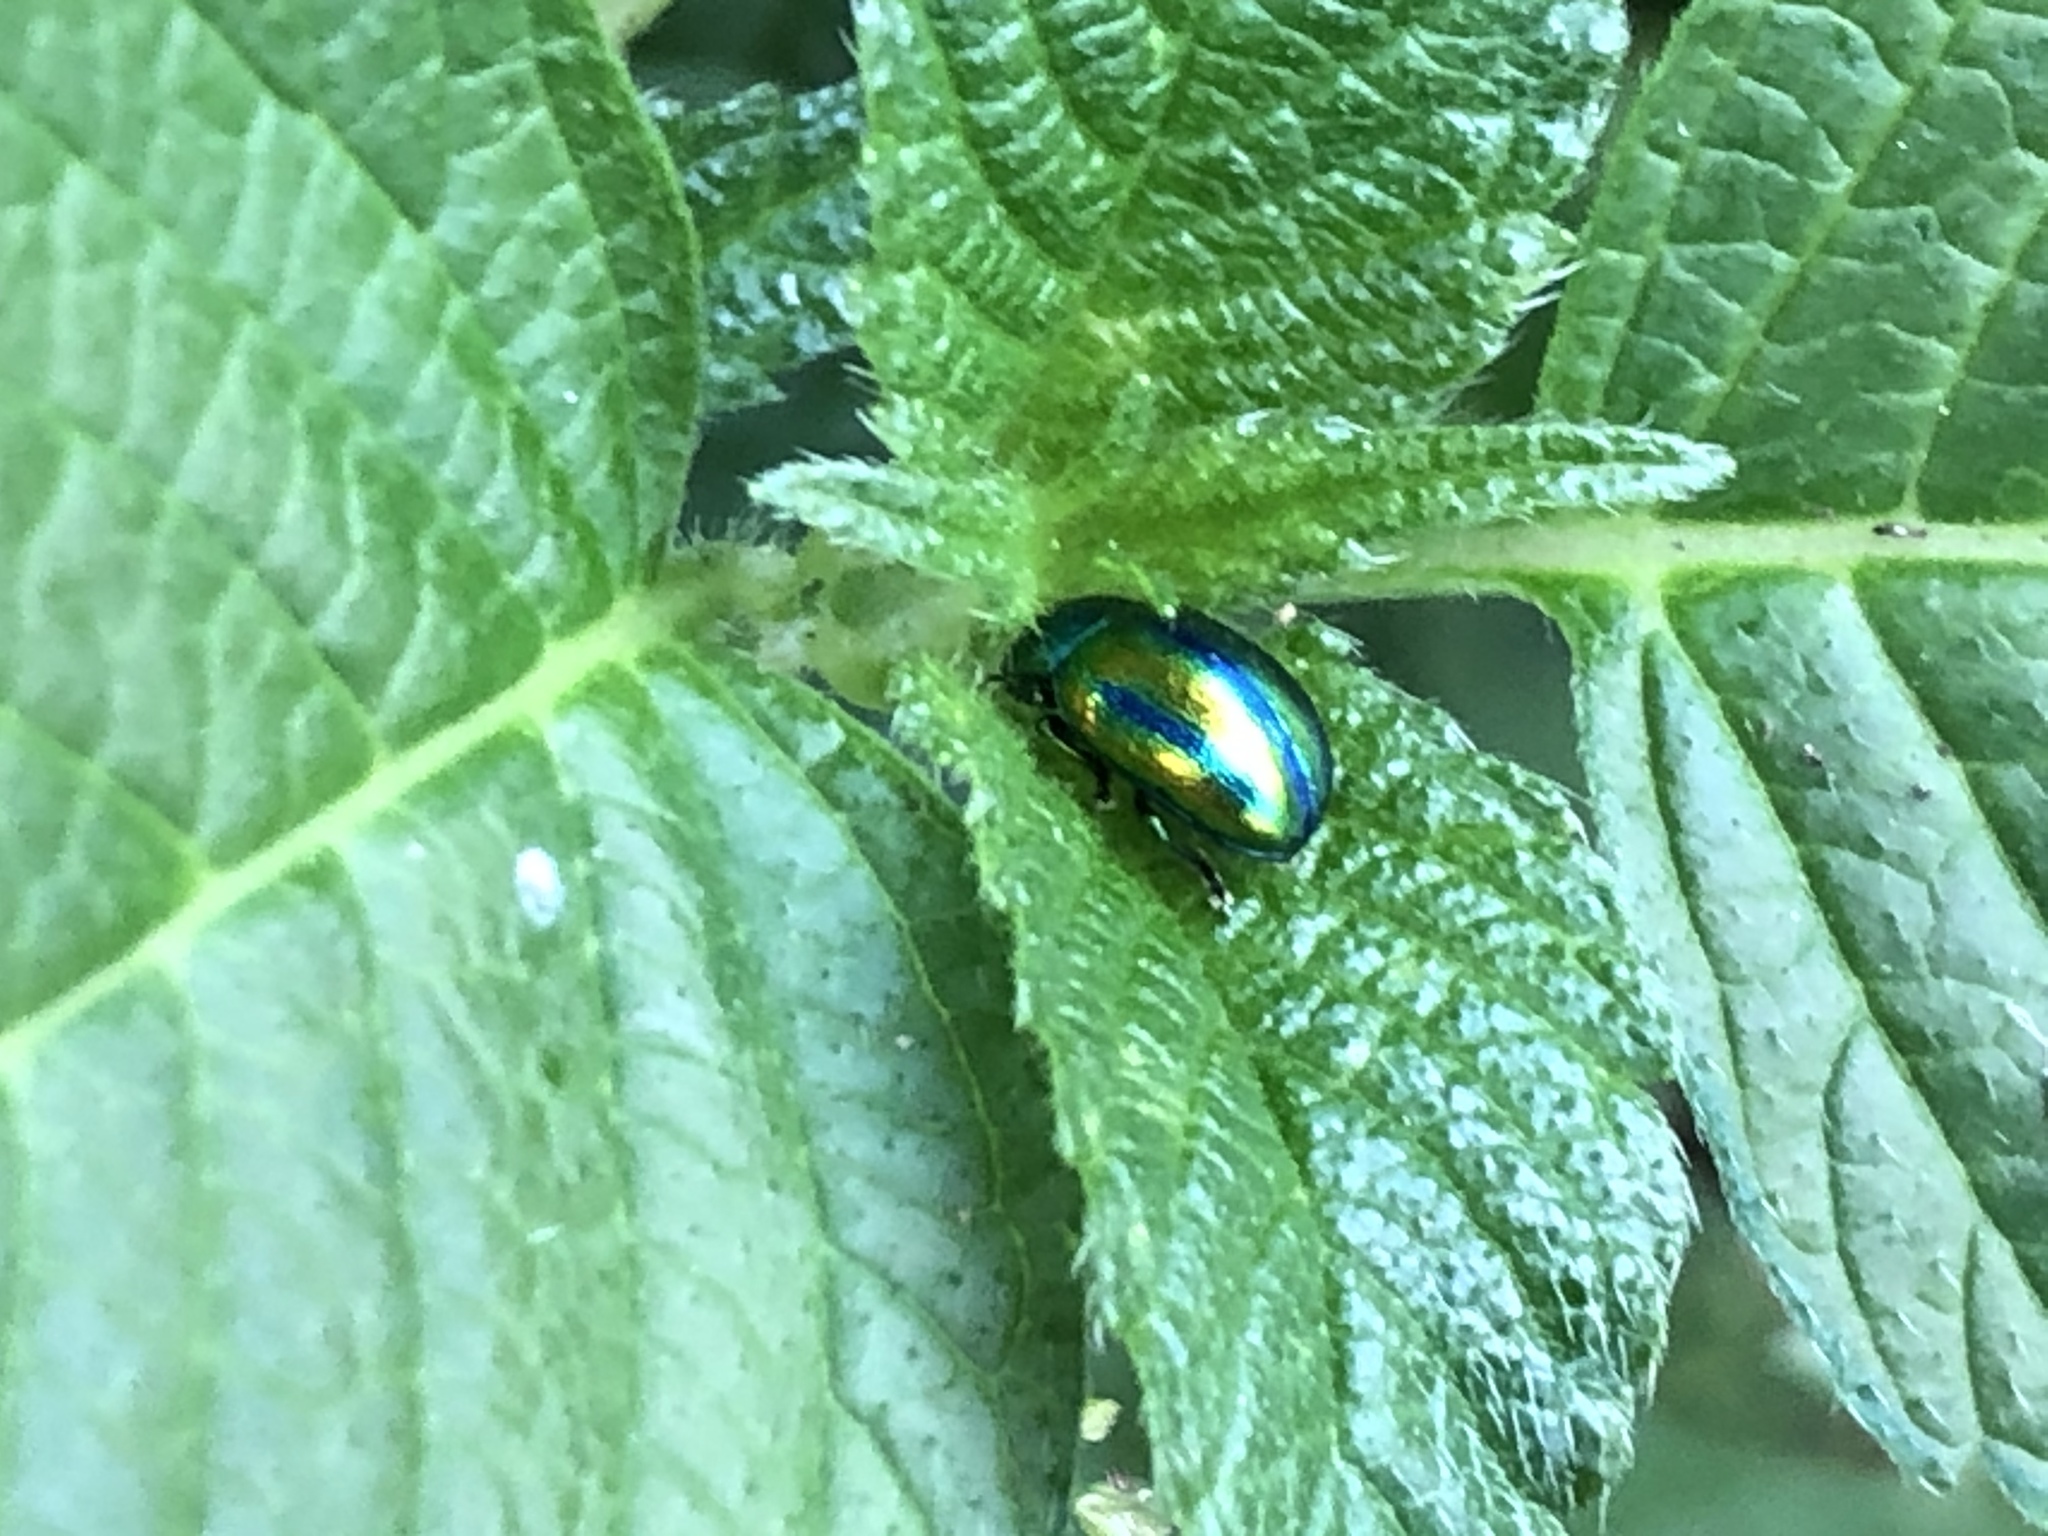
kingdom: Animalia
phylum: Arthropoda
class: Insecta
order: Coleoptera
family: Chrysomelidae
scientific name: Chrysomelidae
